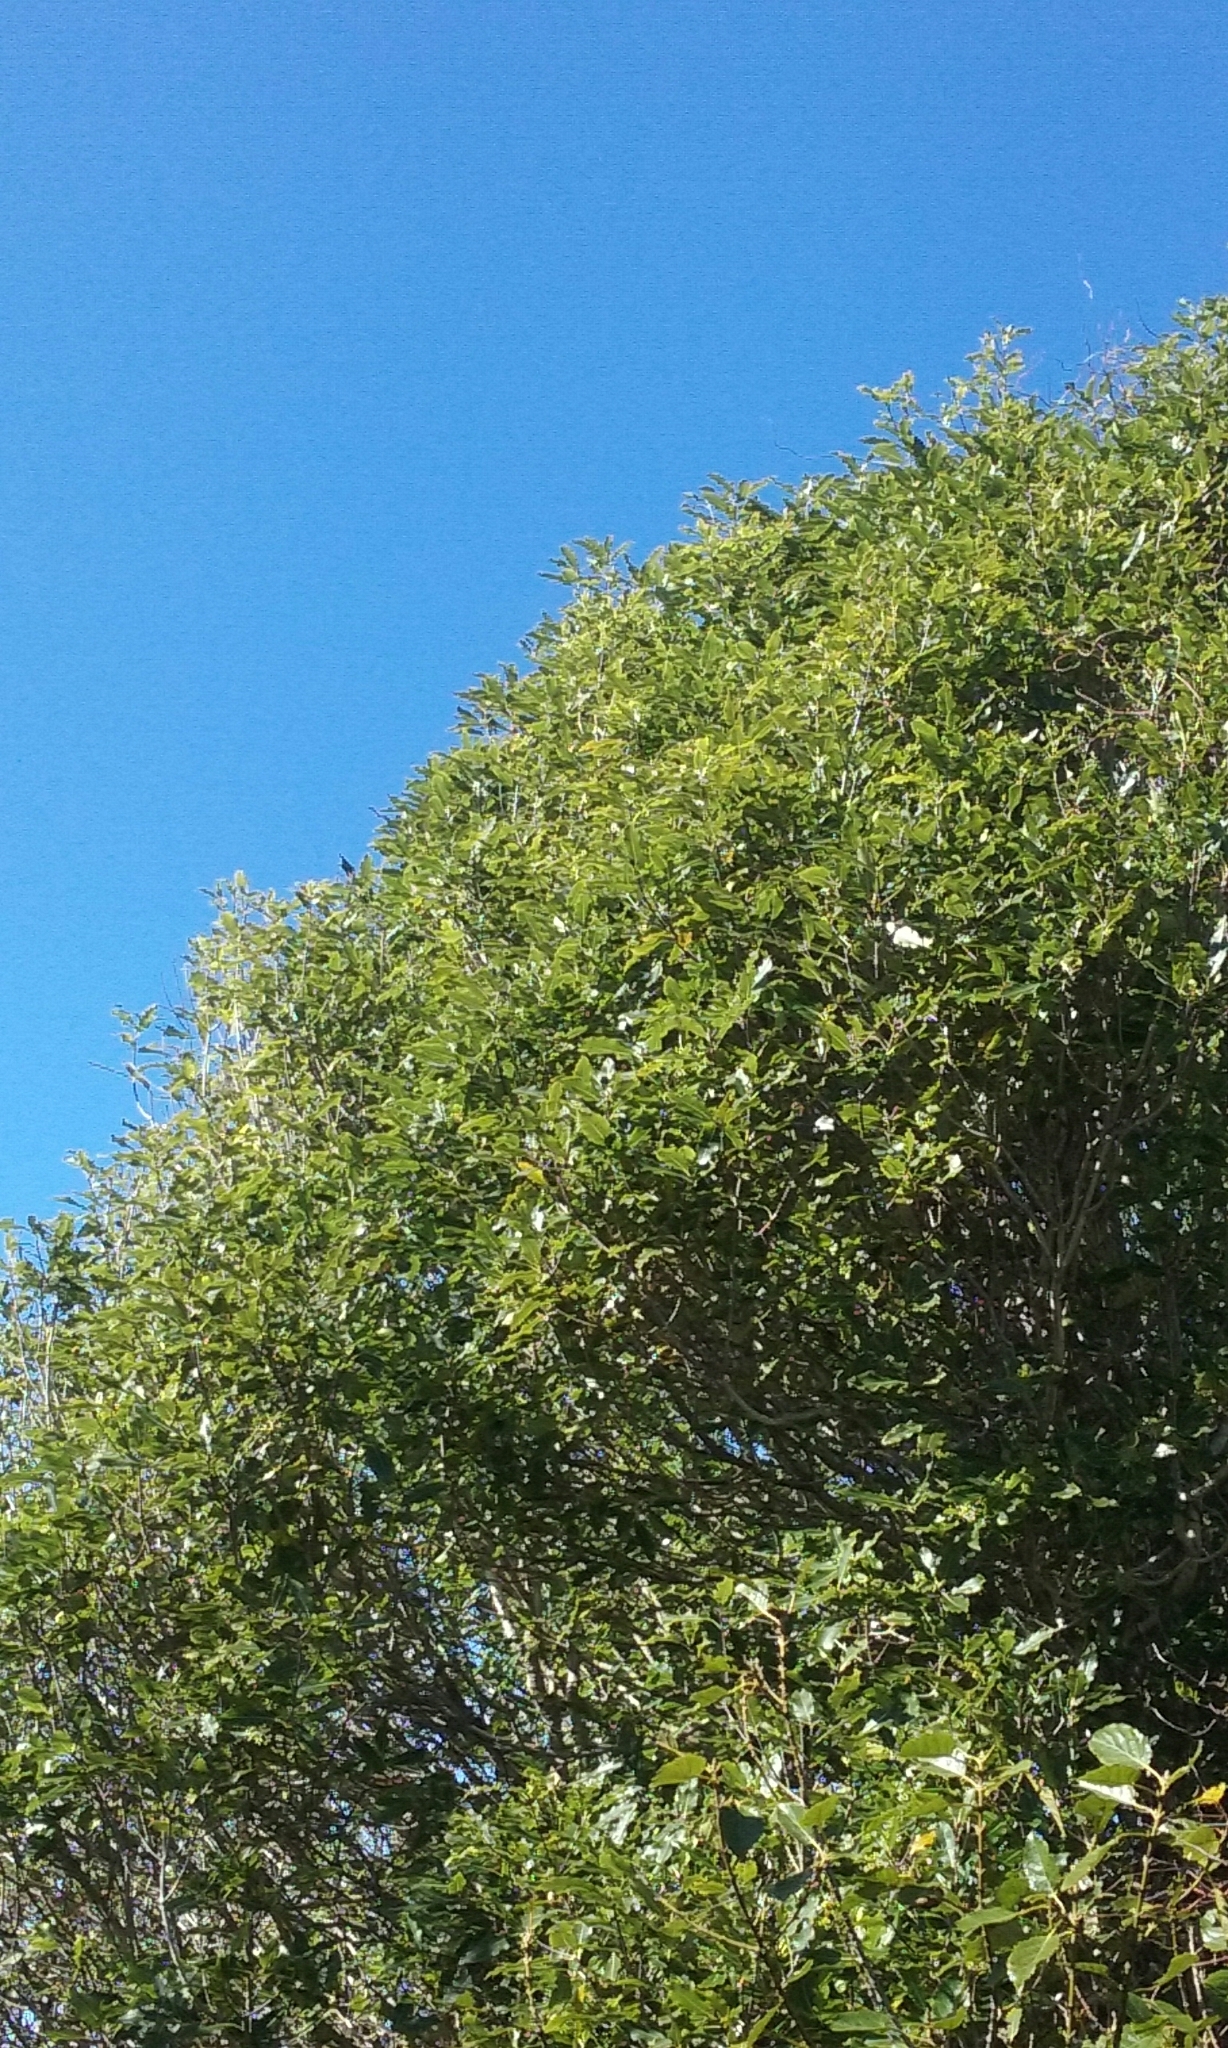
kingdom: Plantae
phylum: Tracheophyta
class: Magnoliopsida
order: Apiales
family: Pittosporaceae
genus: Pittosporum
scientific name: Pittosporum eugenioides
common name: Lemonwood
